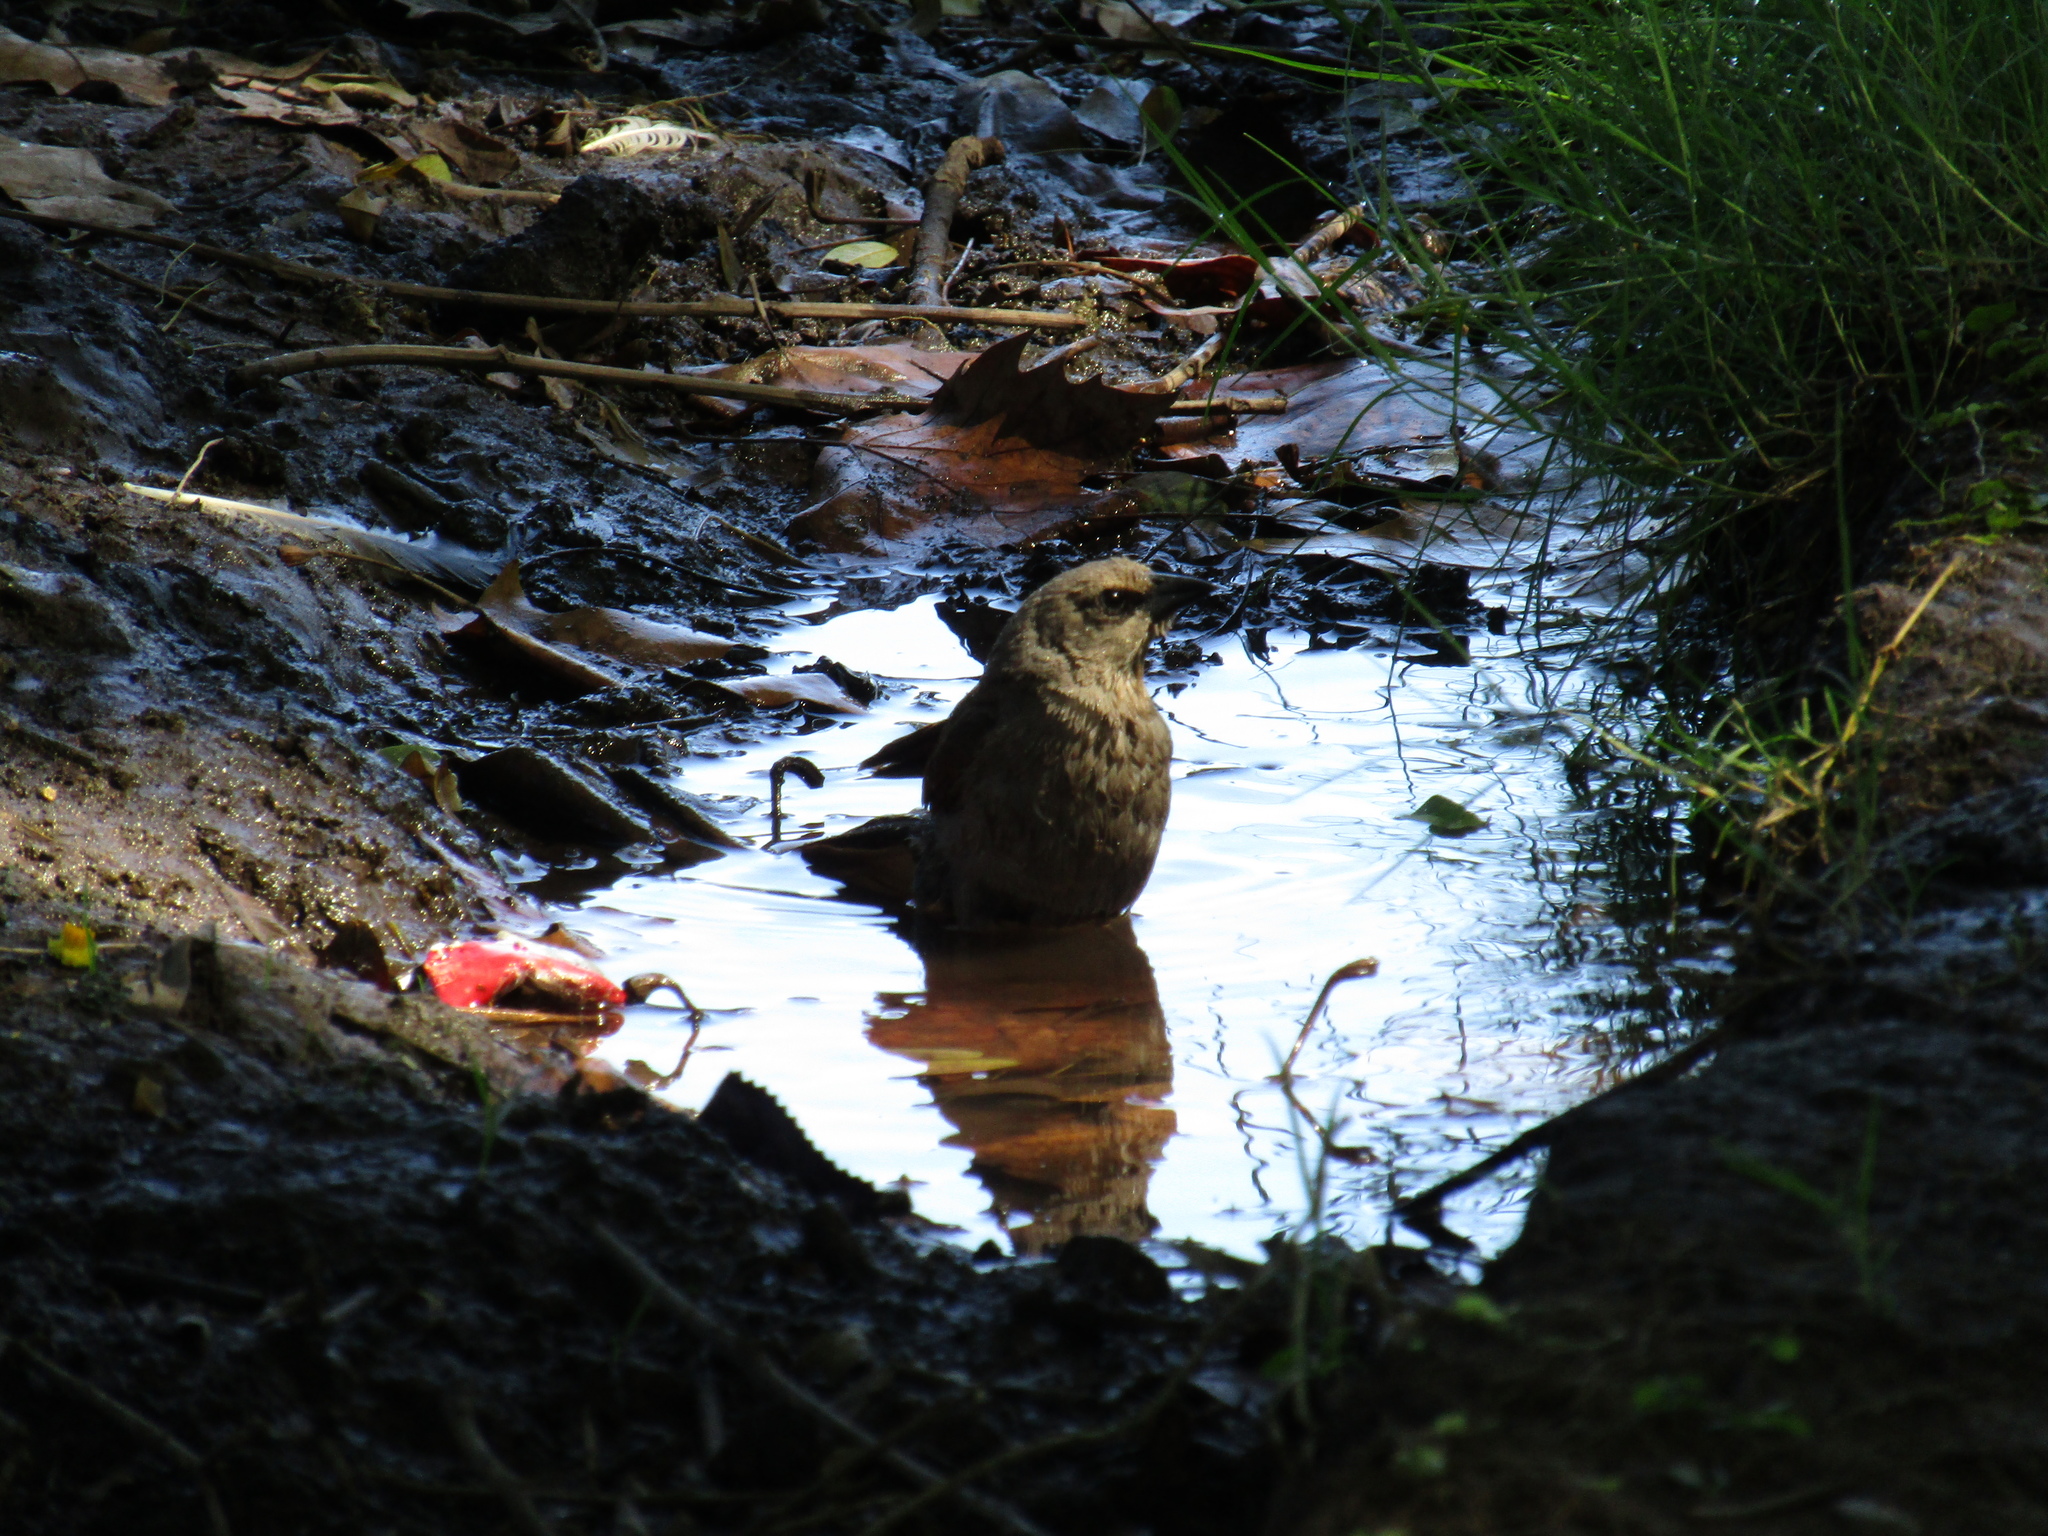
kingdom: Animalia
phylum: Chordata
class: Aves
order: Passeriformes
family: Icteridae
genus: Agelaioides
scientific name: Agelaioides badius
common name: Baywing
